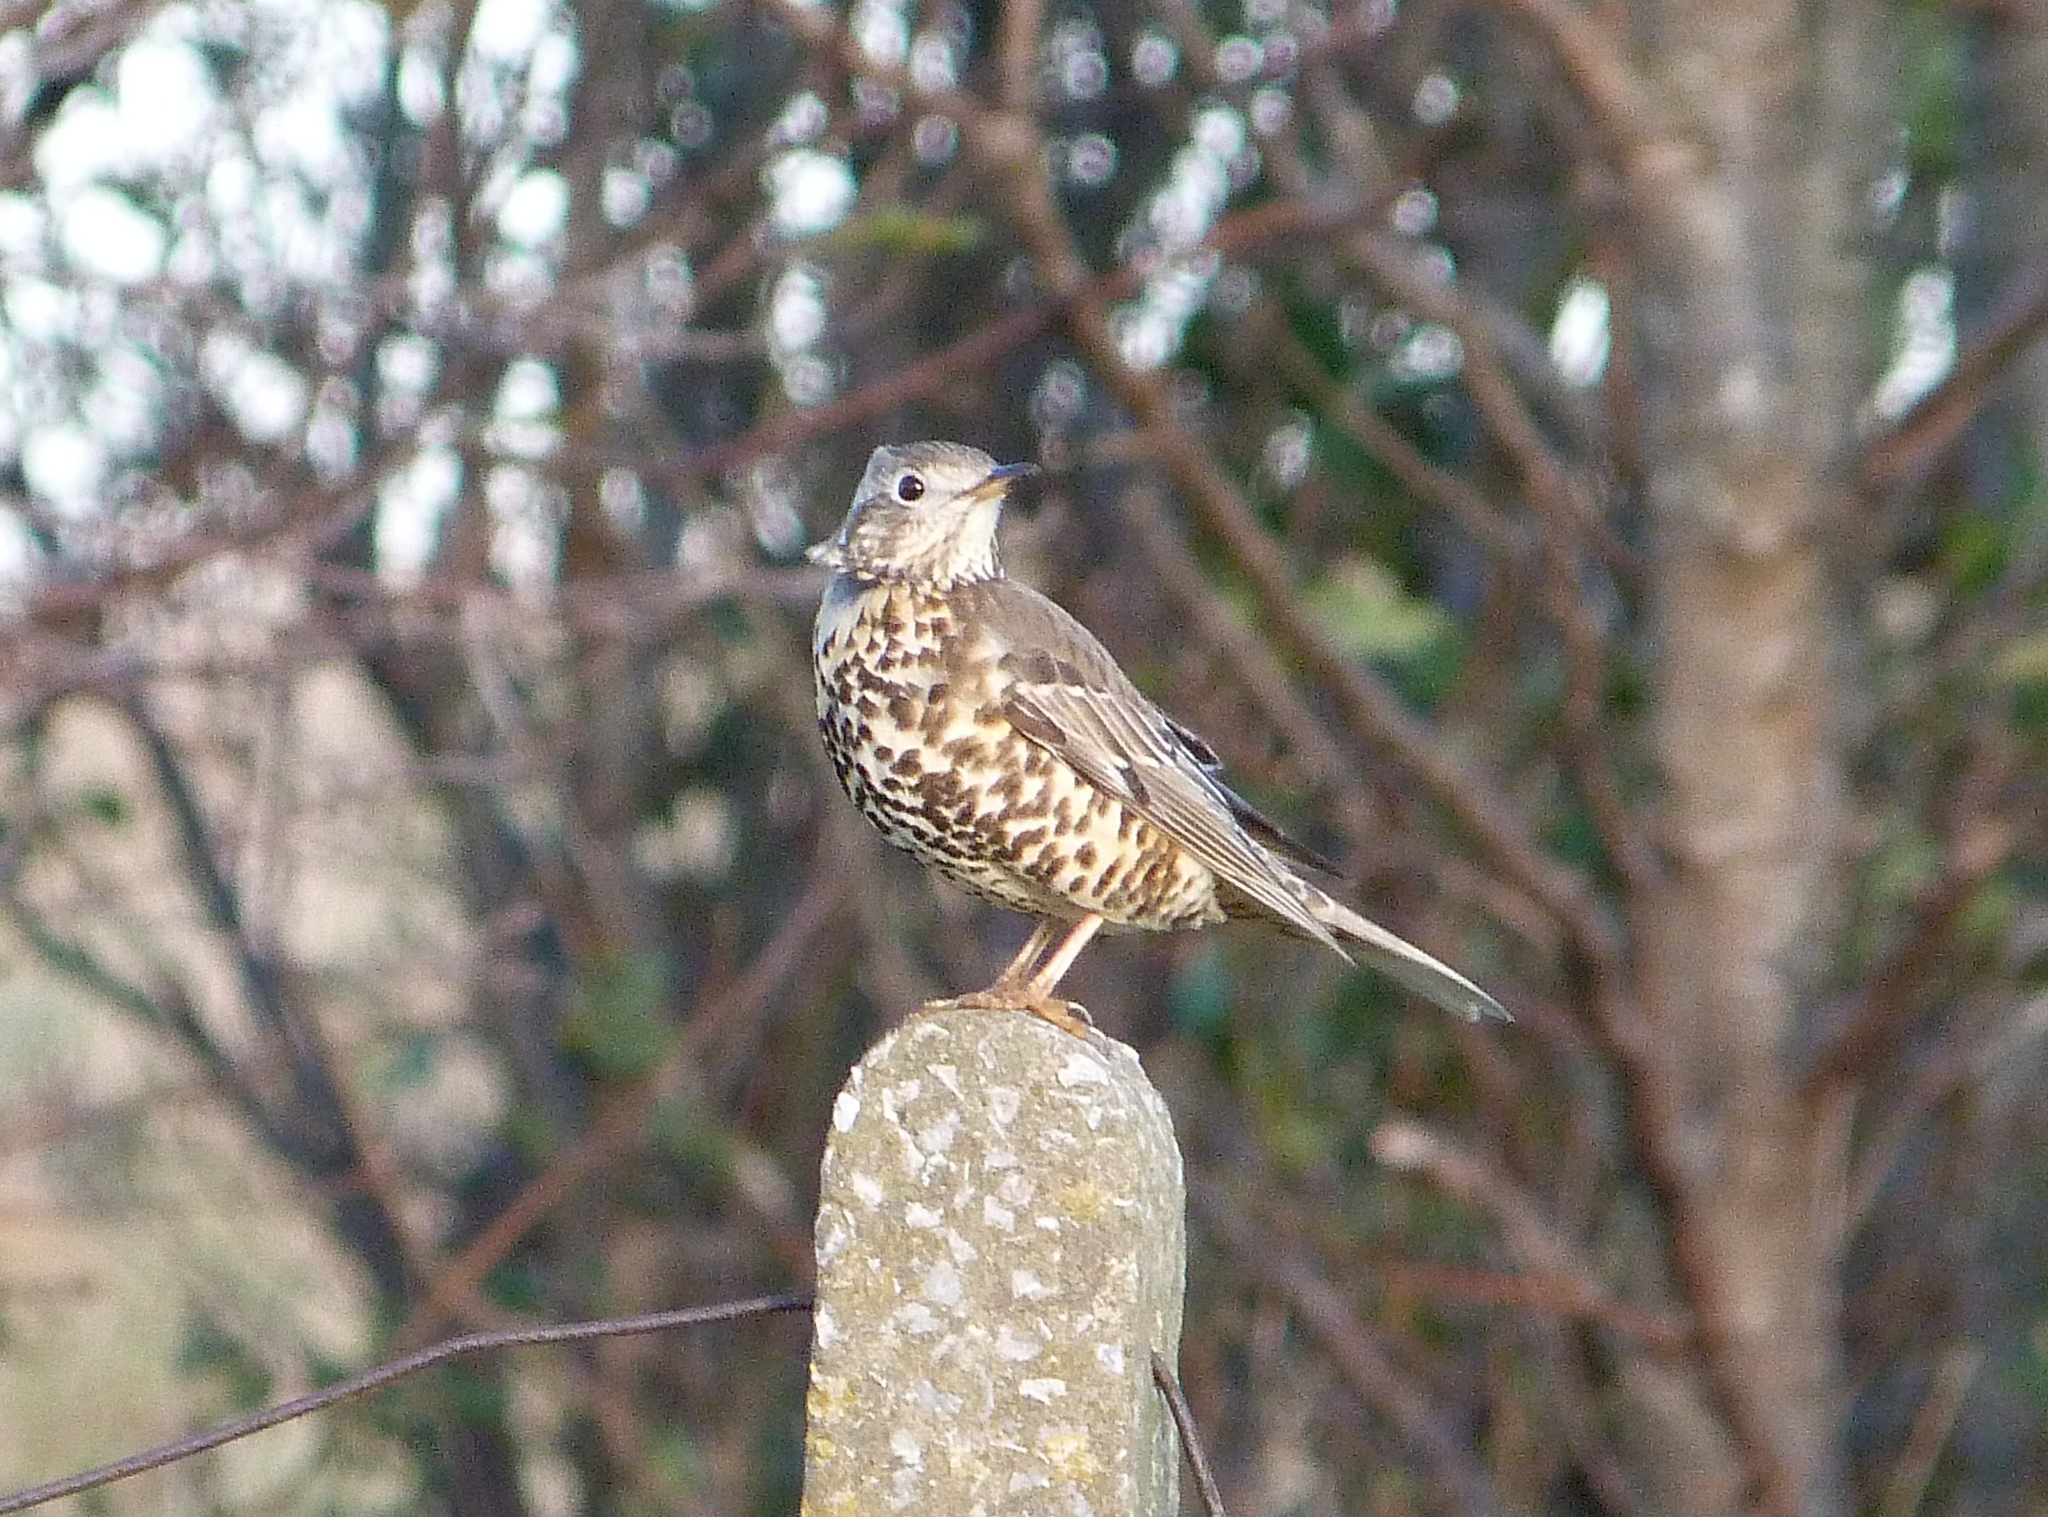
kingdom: Animalia
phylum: Chordata
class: Aves
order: Passeriformes
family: Turdidae
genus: Turdus
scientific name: Turdus viscivorus
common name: Mistle thrush
